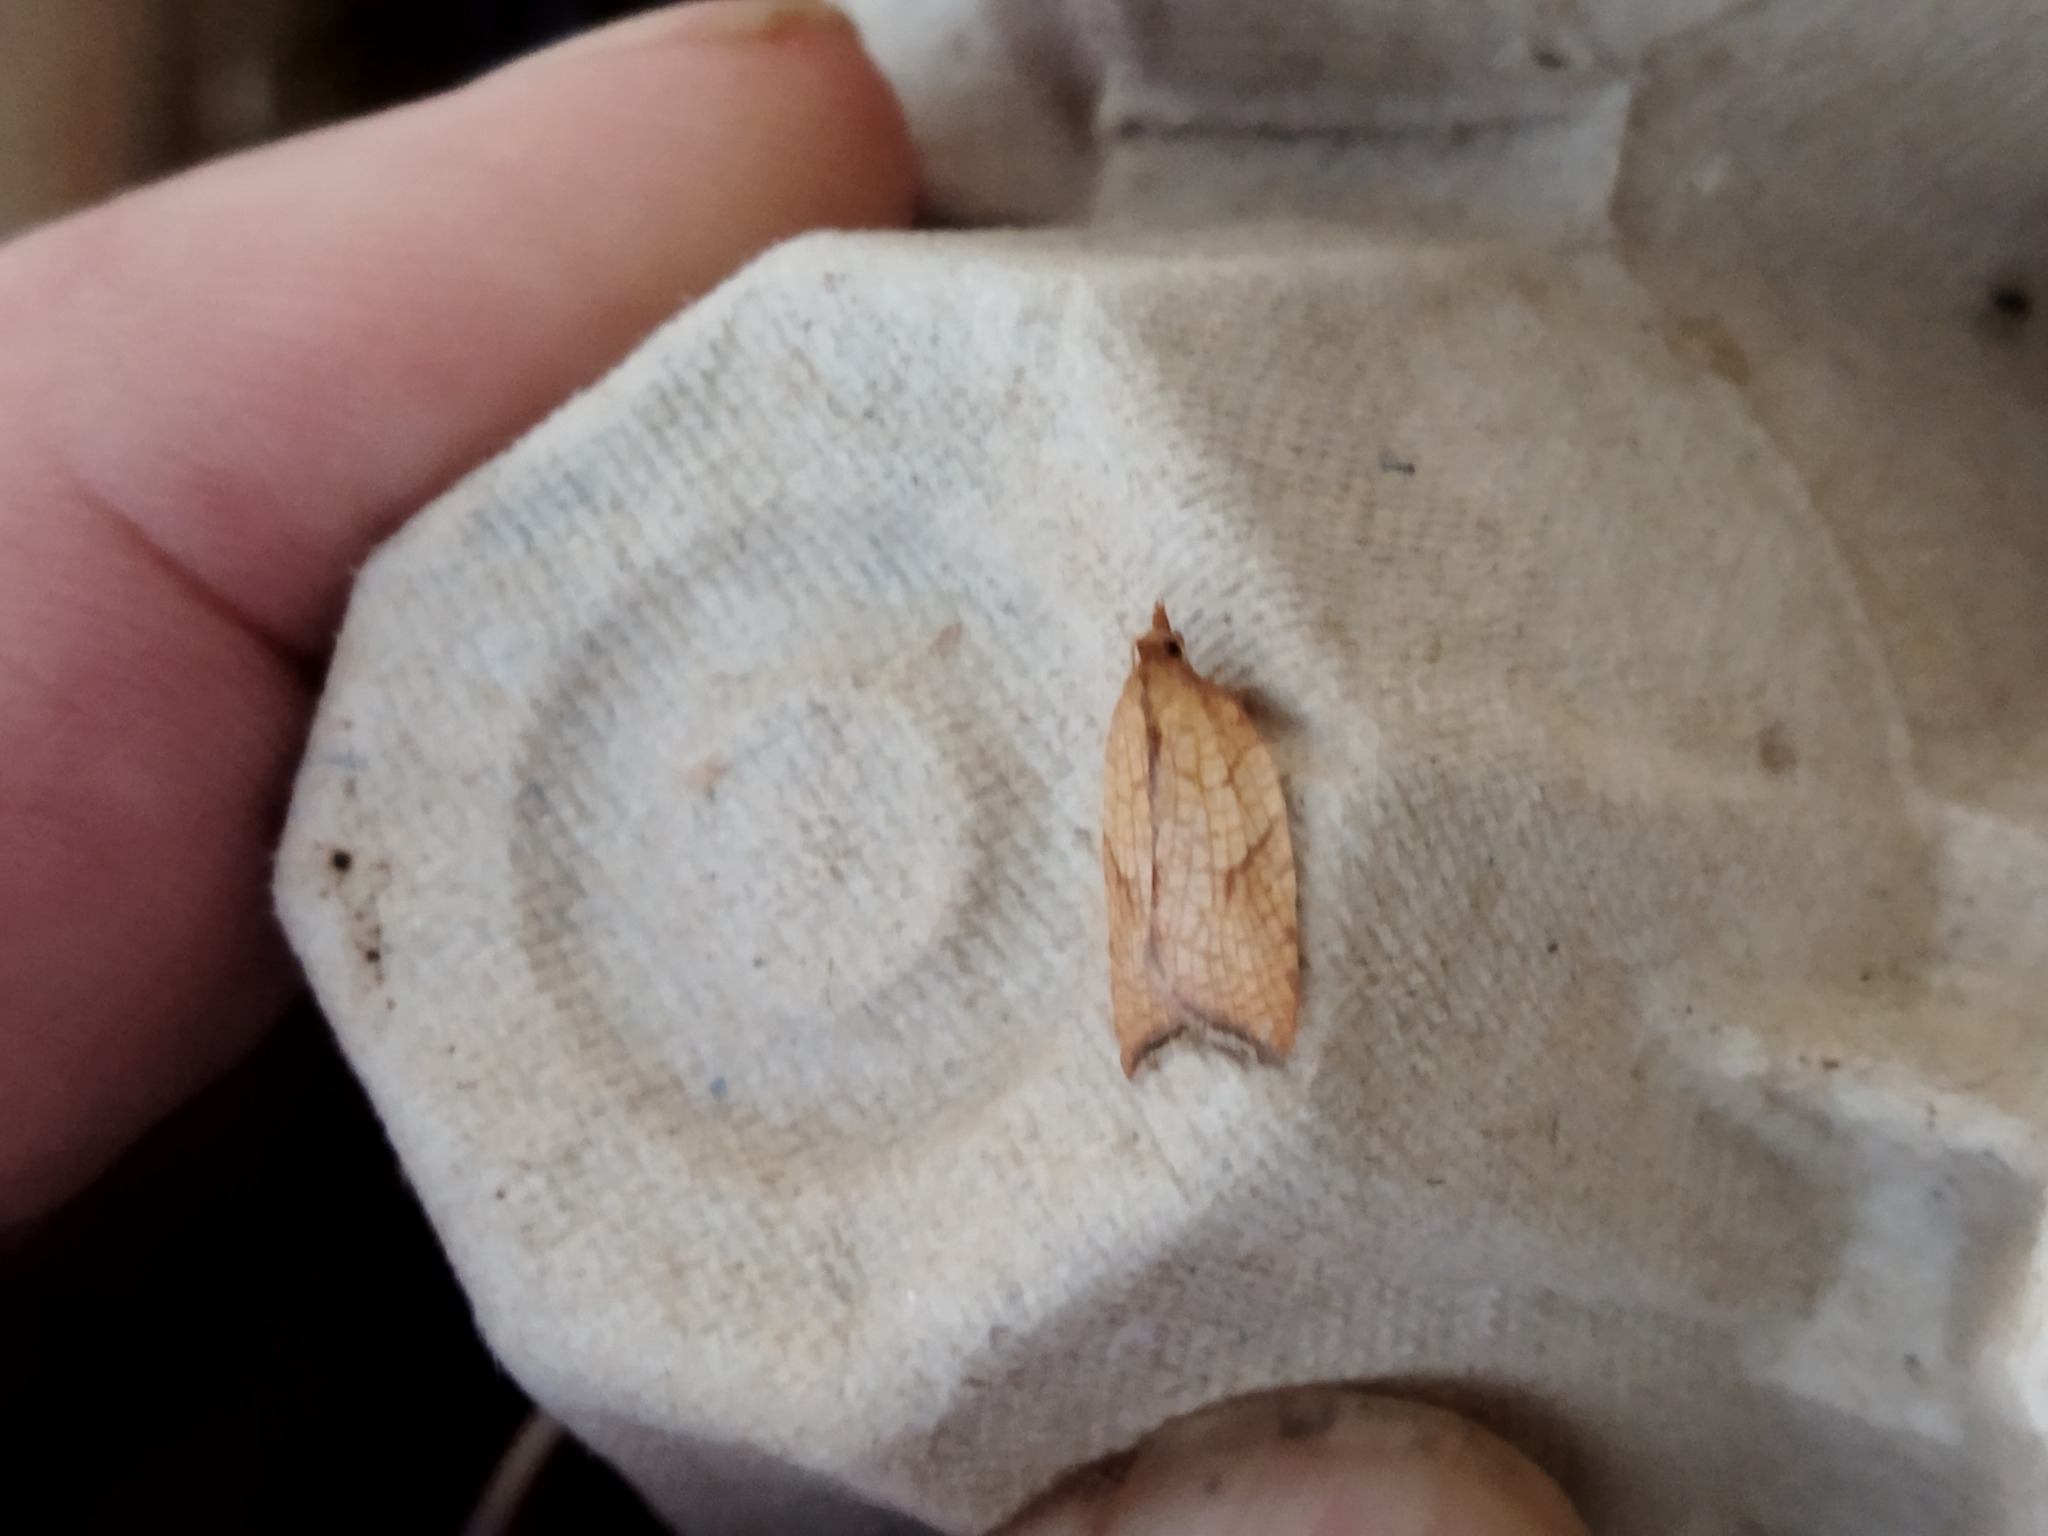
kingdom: Animalia
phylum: Arthropoda
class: Insecta
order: Lepidoptera
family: Tortricidae
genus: Acleris
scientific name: Acleris rhombana
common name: Tortricid moth
